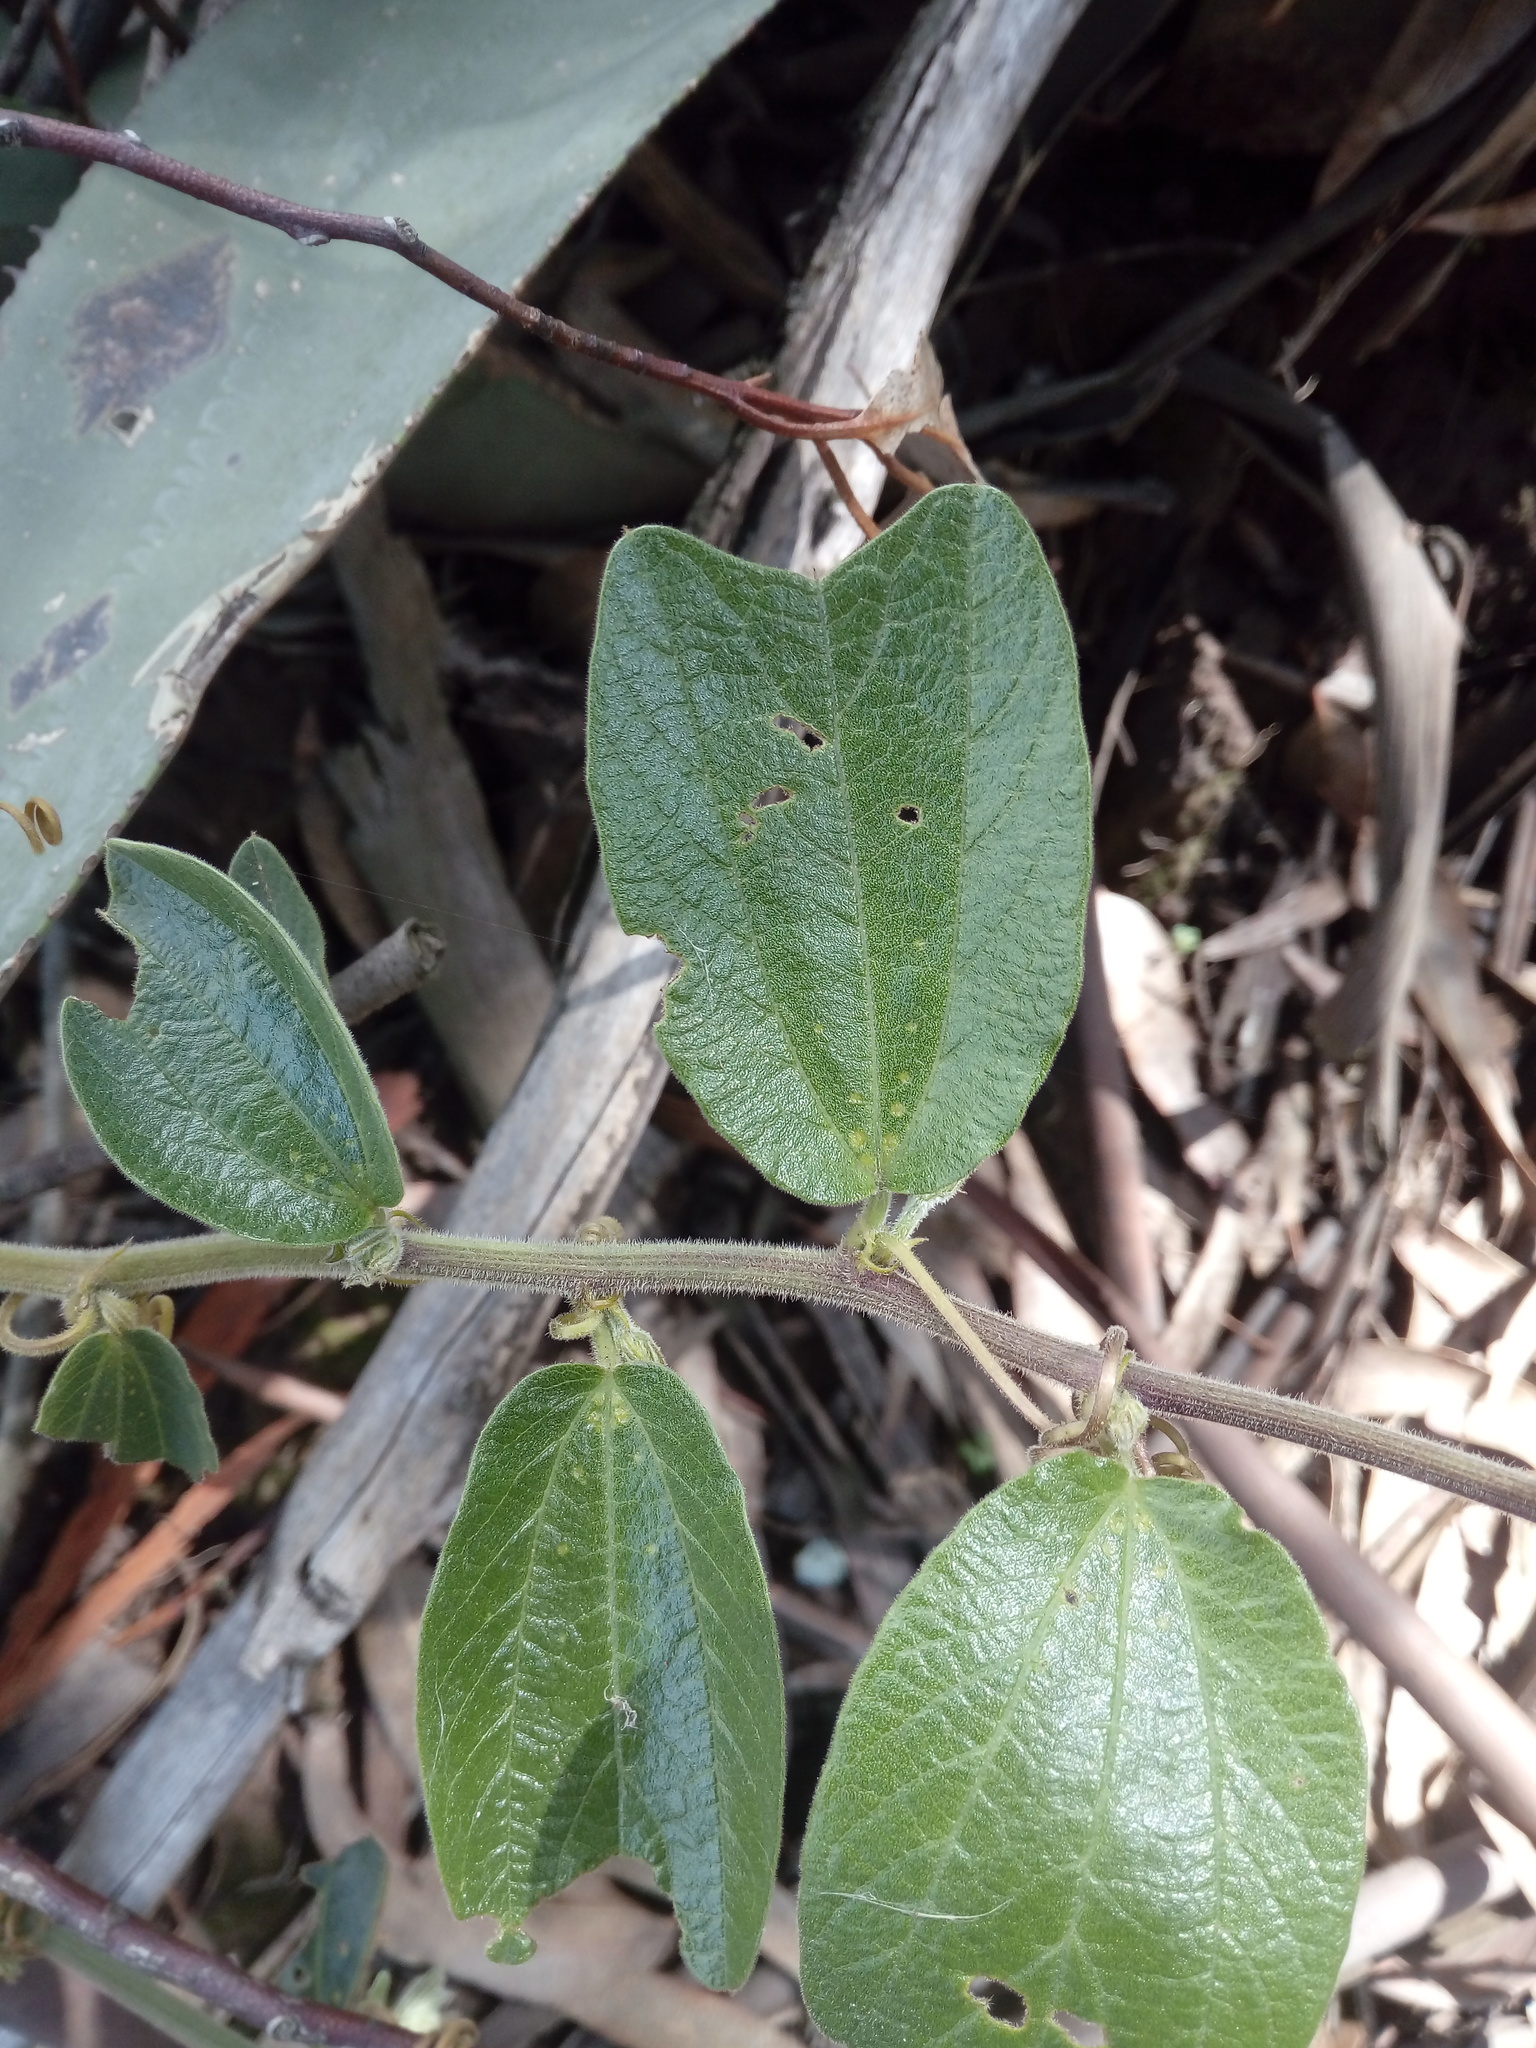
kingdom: Plantae
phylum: Tracheophyta
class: Magnoliopsida
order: Malpighiales
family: Passifloraceae
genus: Passiflora
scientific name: Passiflora bogotensis
